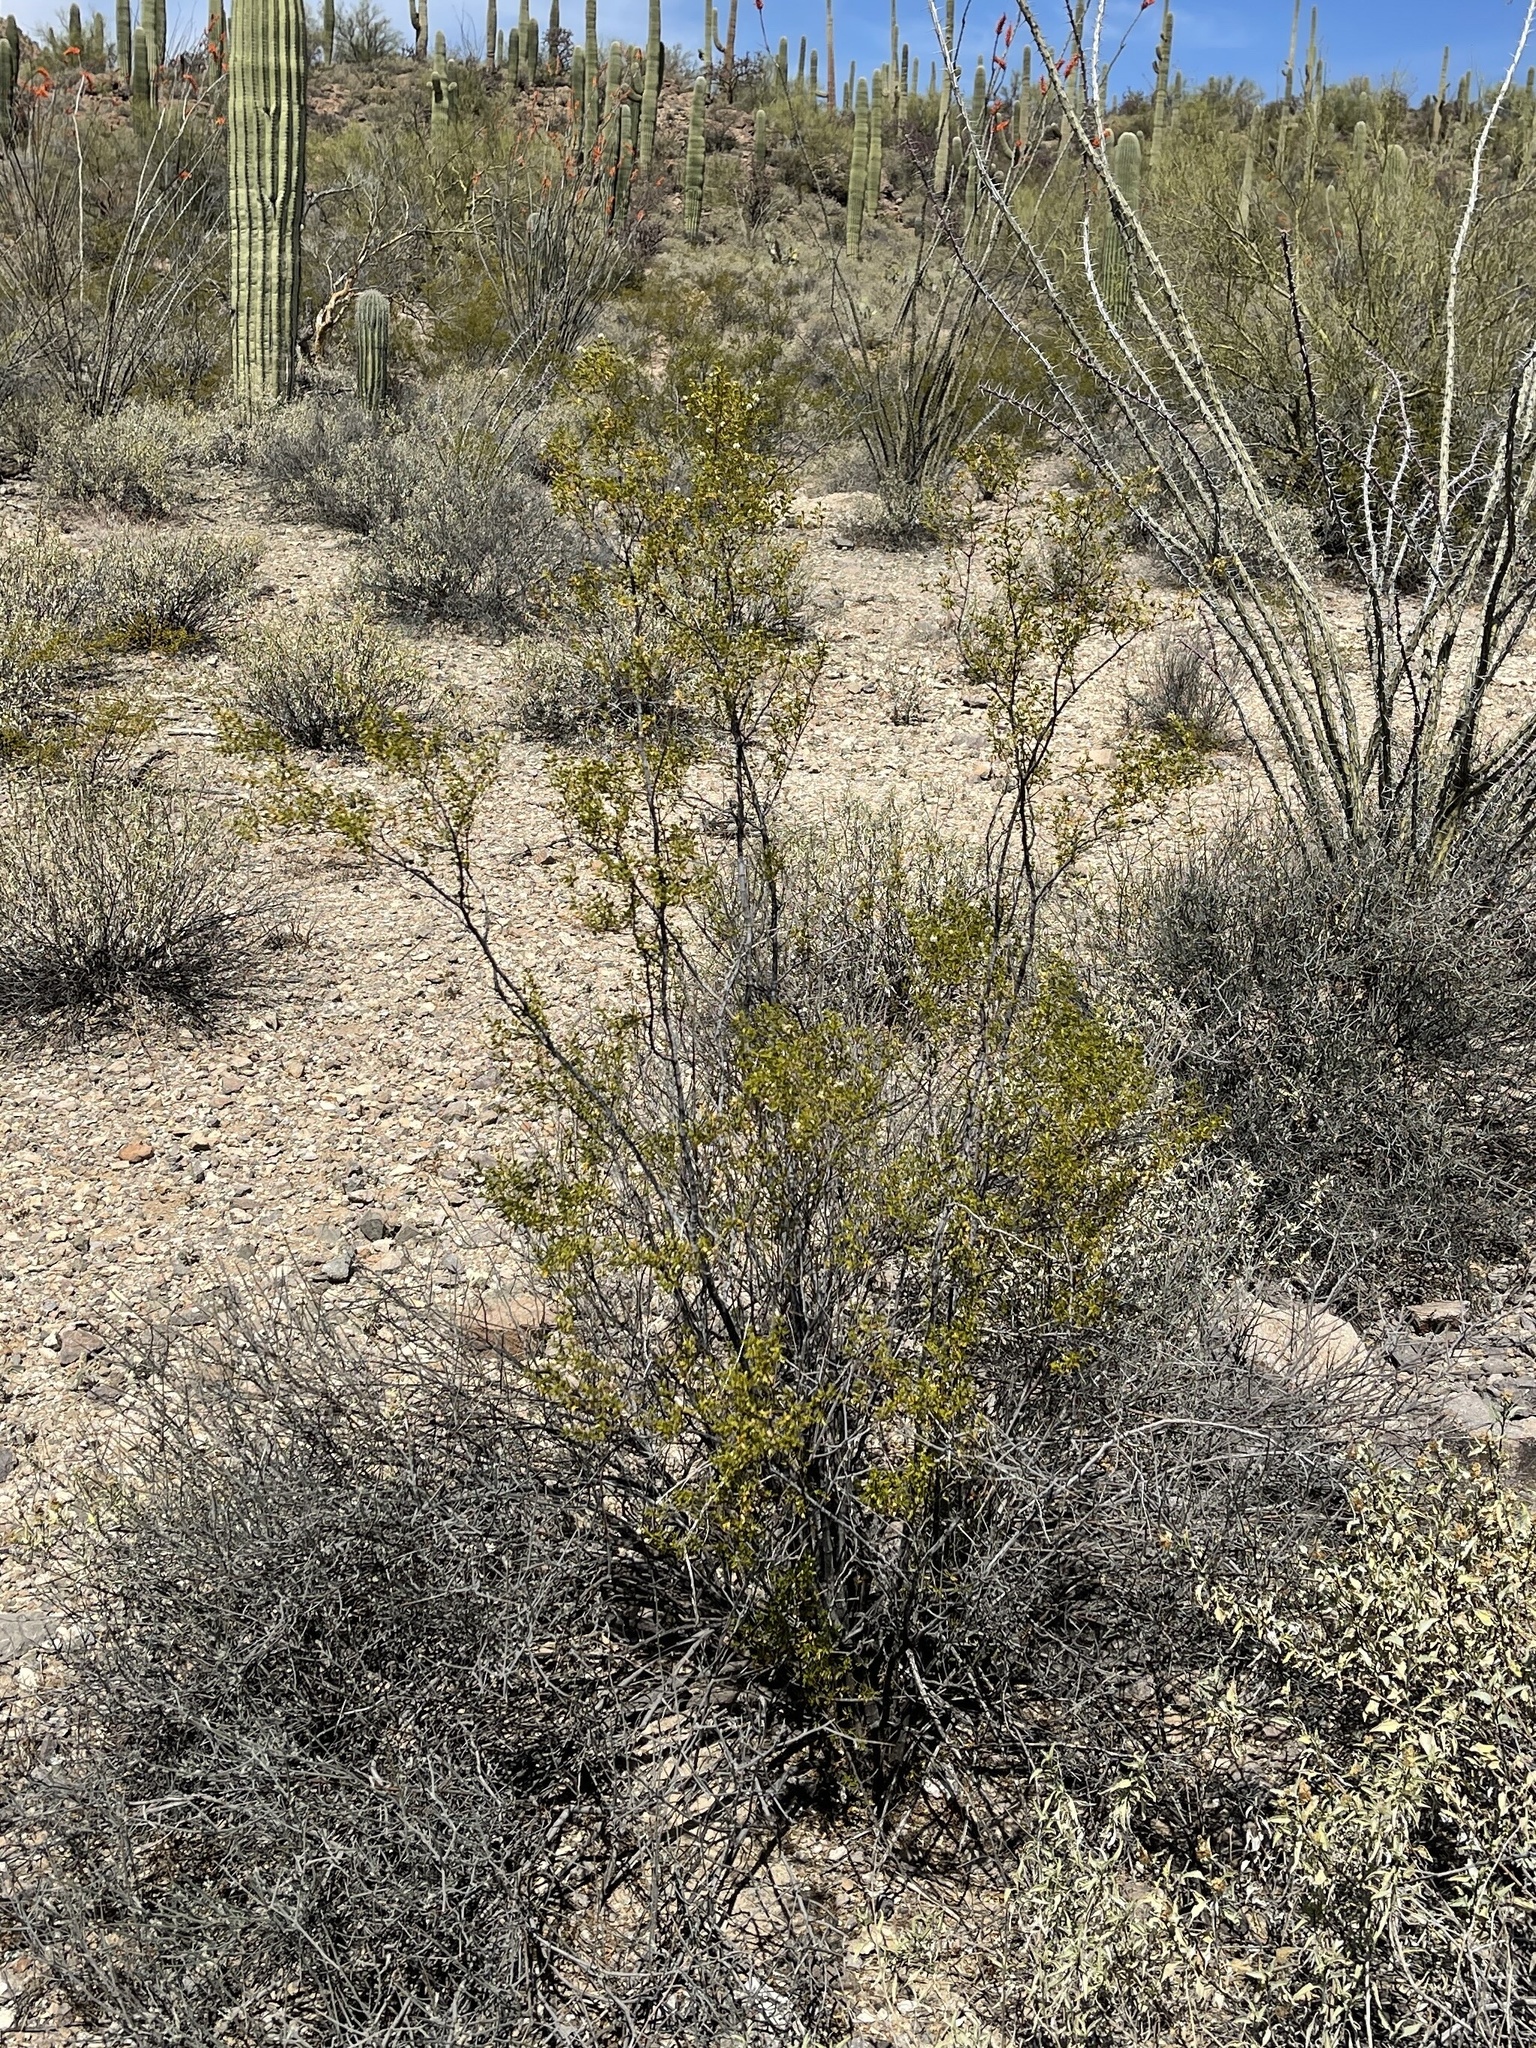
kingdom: Plantae
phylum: Tracheophyta
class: Magnoliopsida
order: Zygophyllales
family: Zygophyllaceae
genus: Larrea
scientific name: Larrea tridentata
